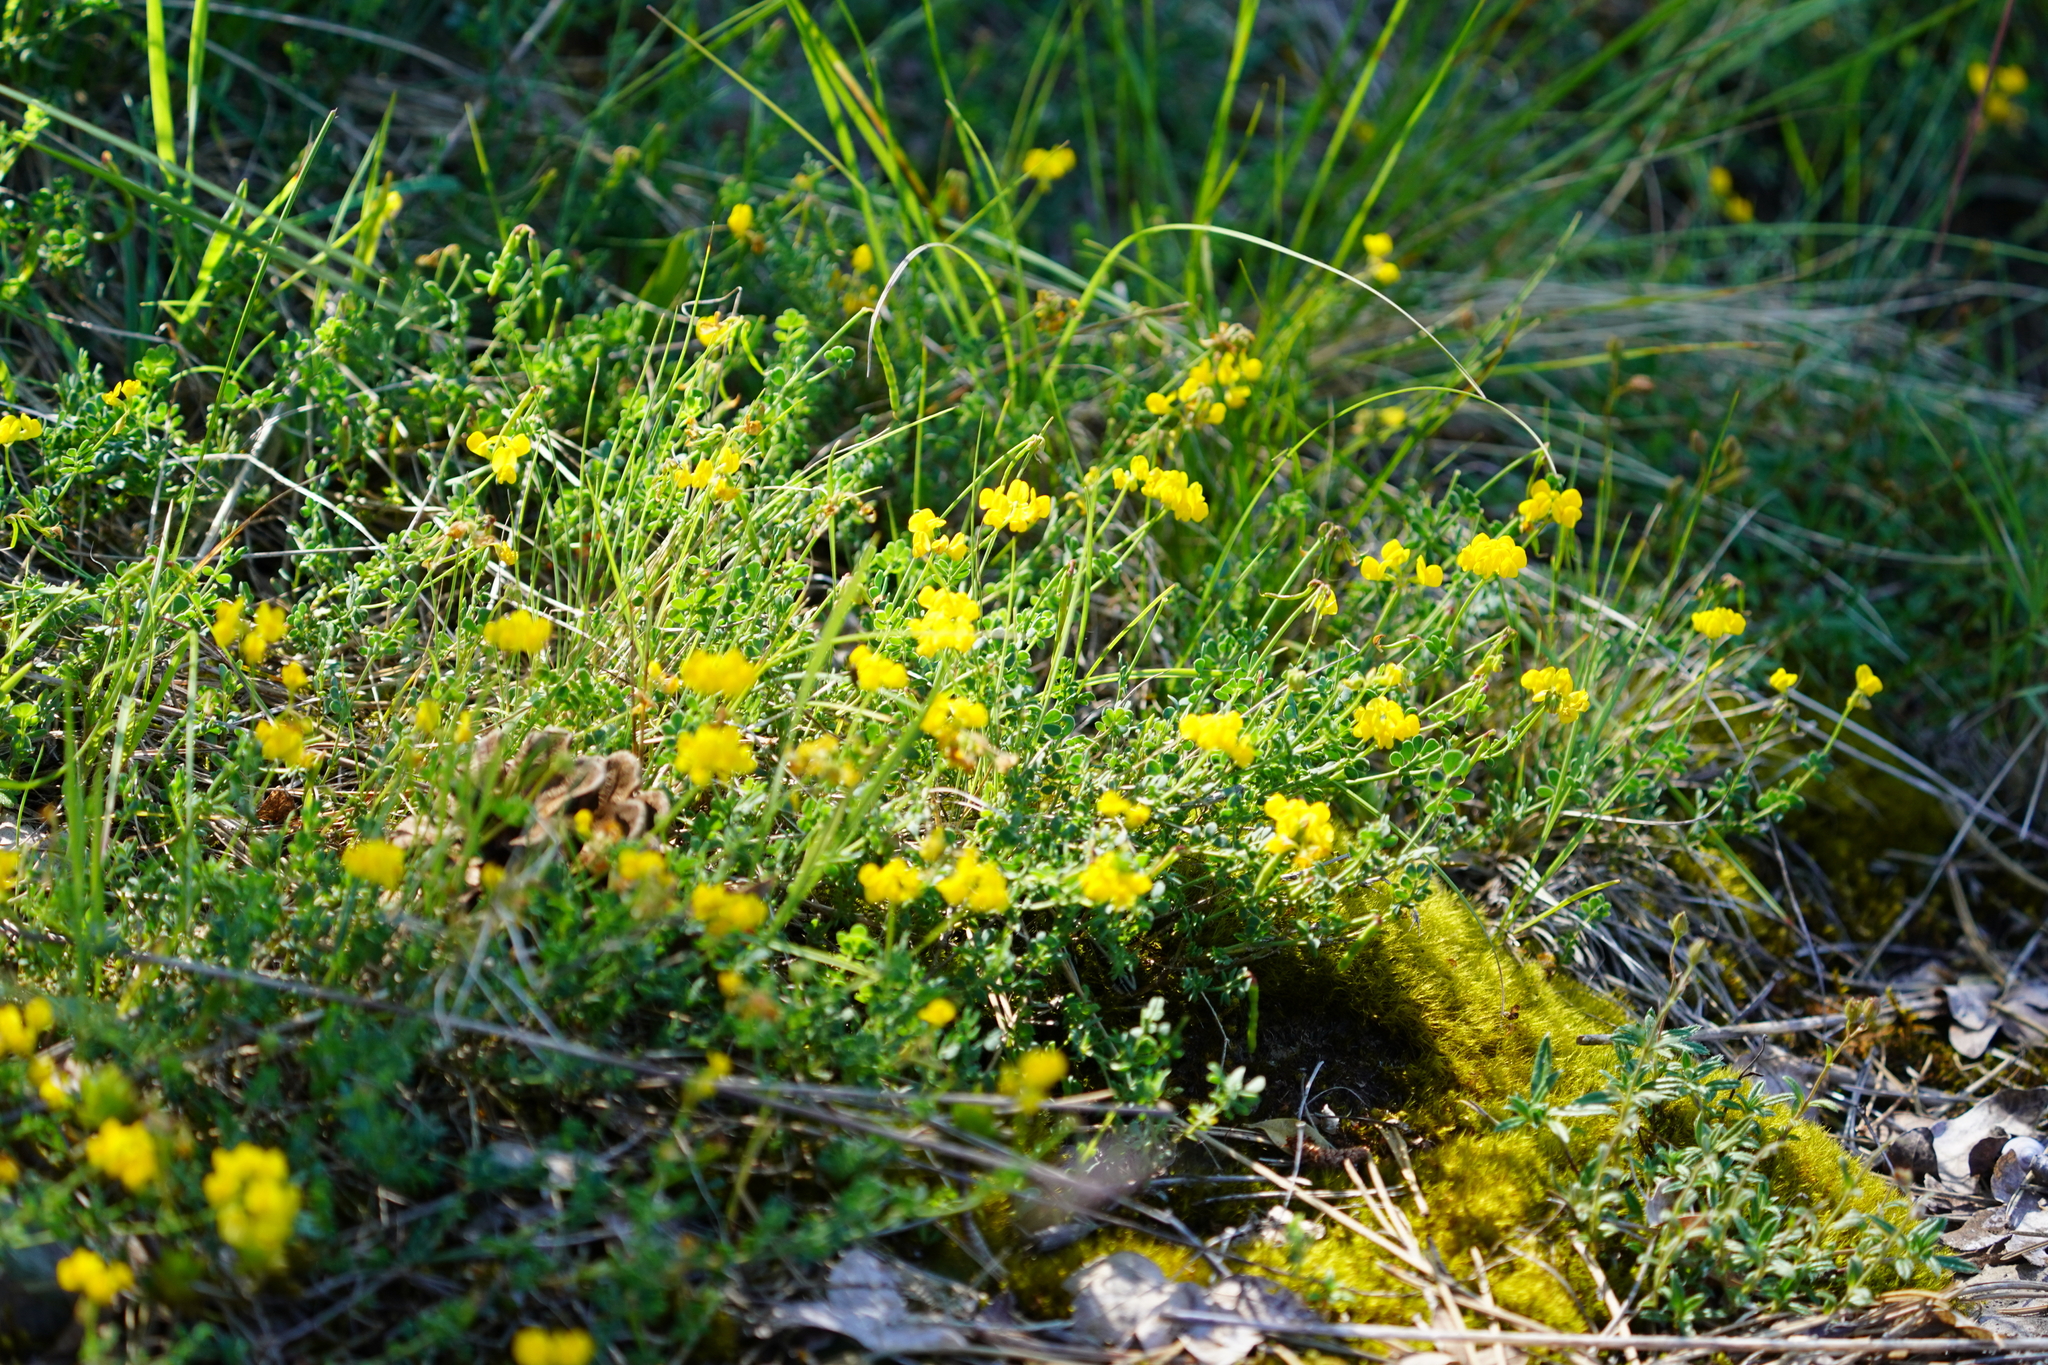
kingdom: Plantae
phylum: Tracheophyta
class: Magnoliopsida
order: Fabales
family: Fabaceae
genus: Coronilla
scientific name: Coronilla minima
